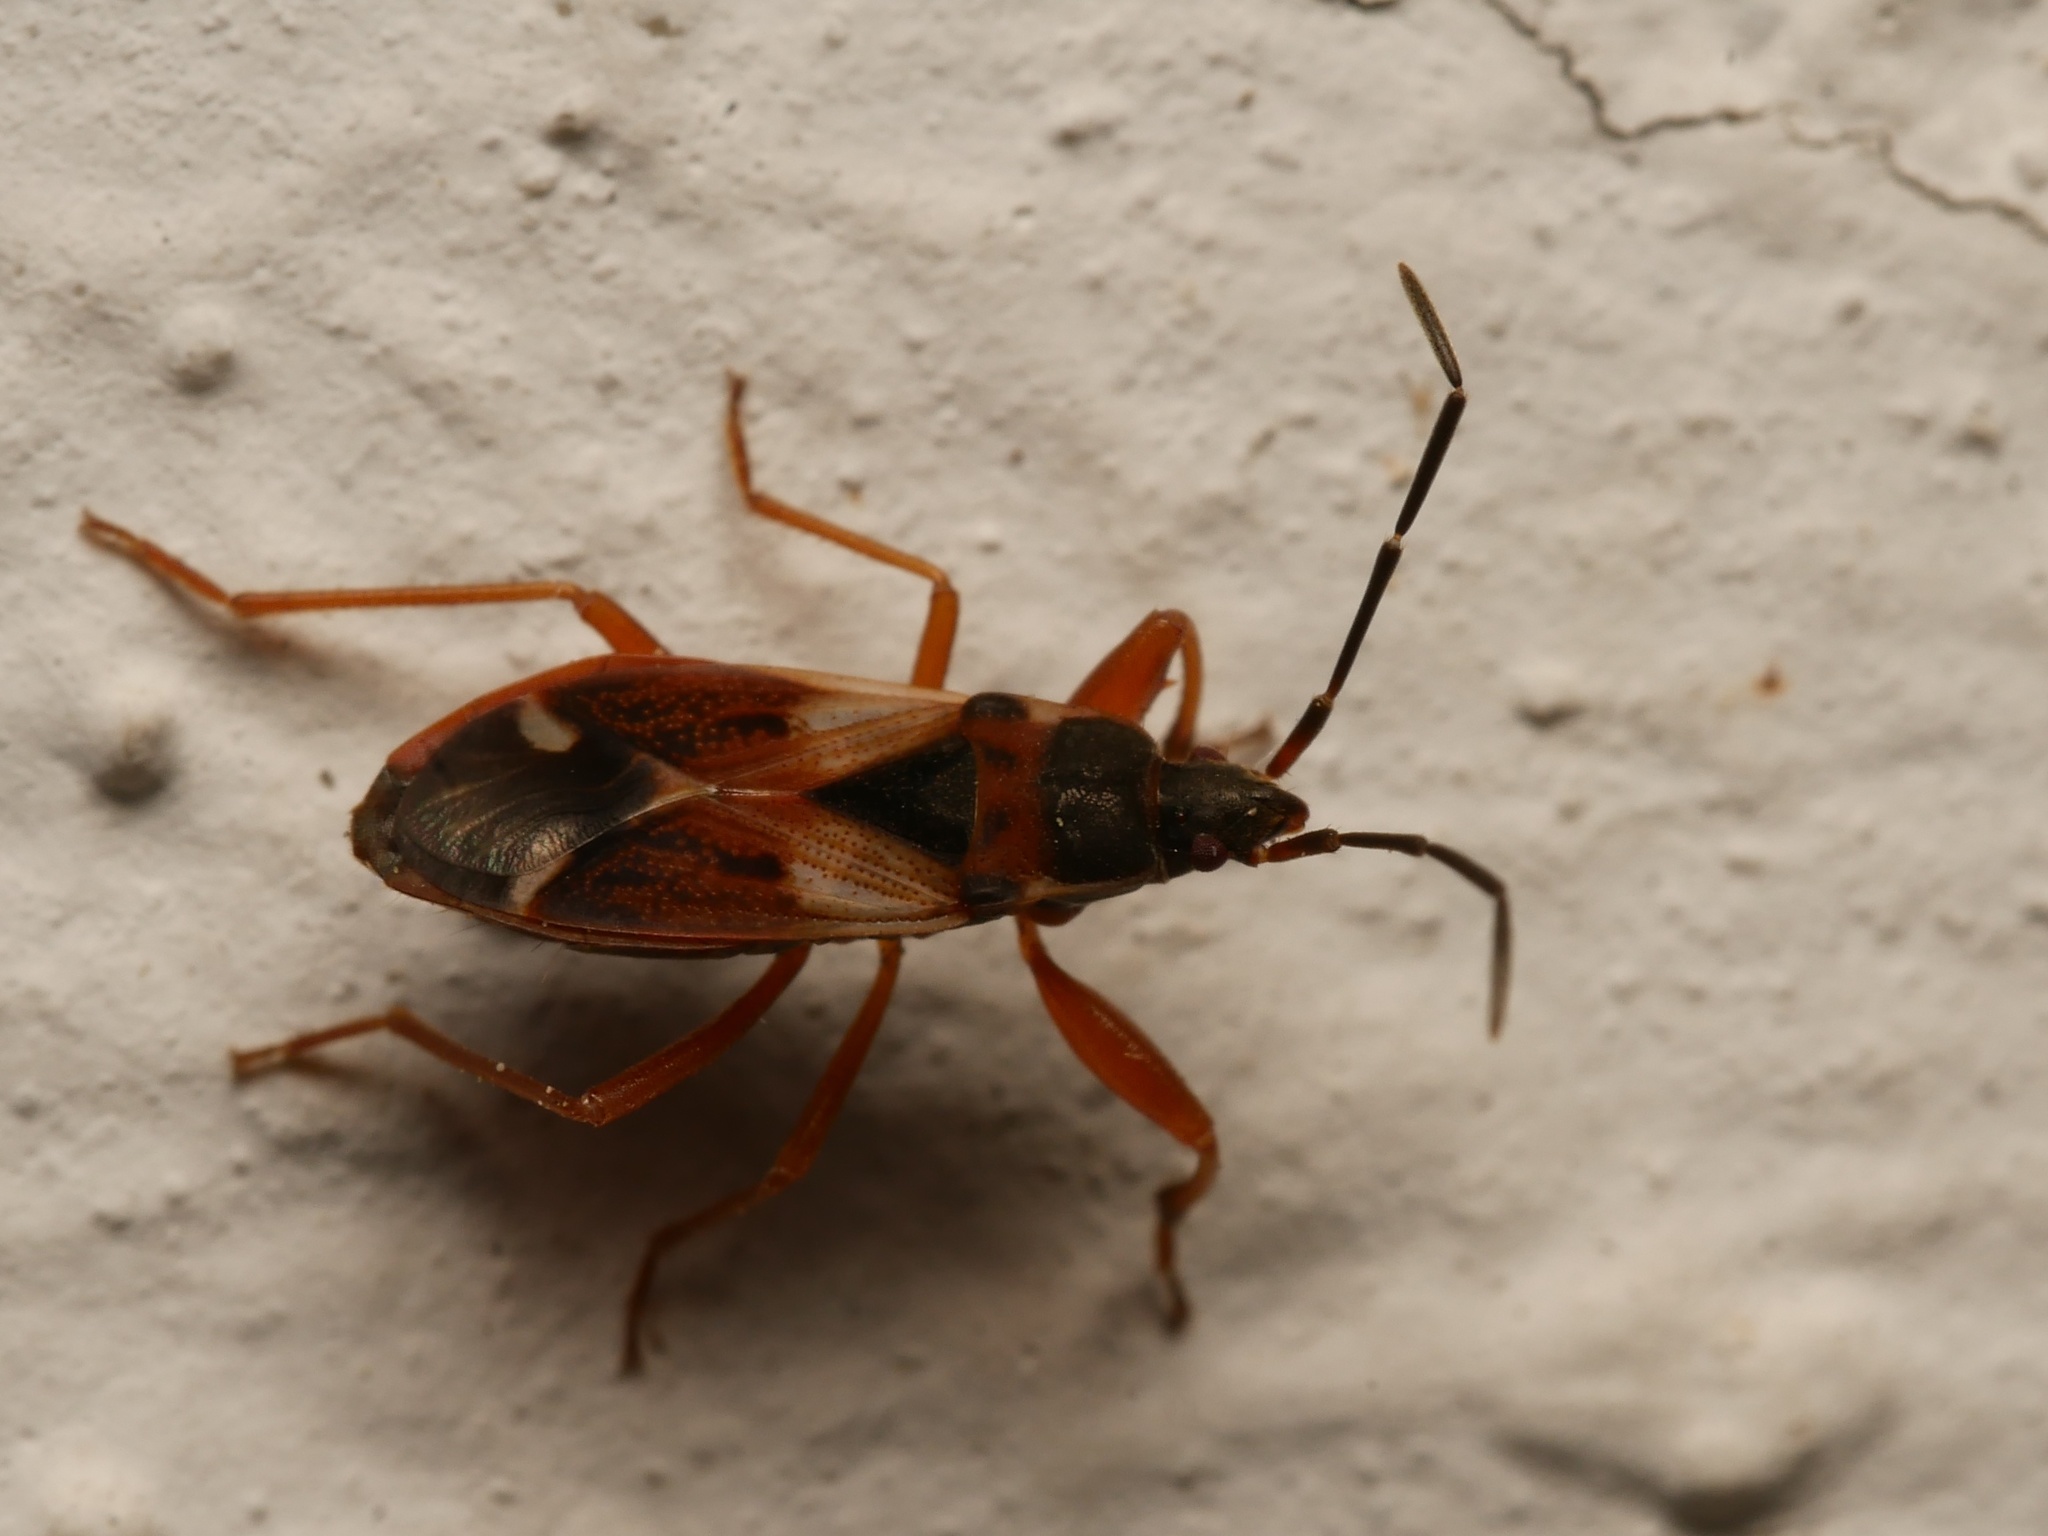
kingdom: Animalia
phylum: Arthropoda
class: Insecta
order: Hemiptera
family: Rhyparochromidae
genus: Eremocoris
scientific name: Eremocoris abietis
